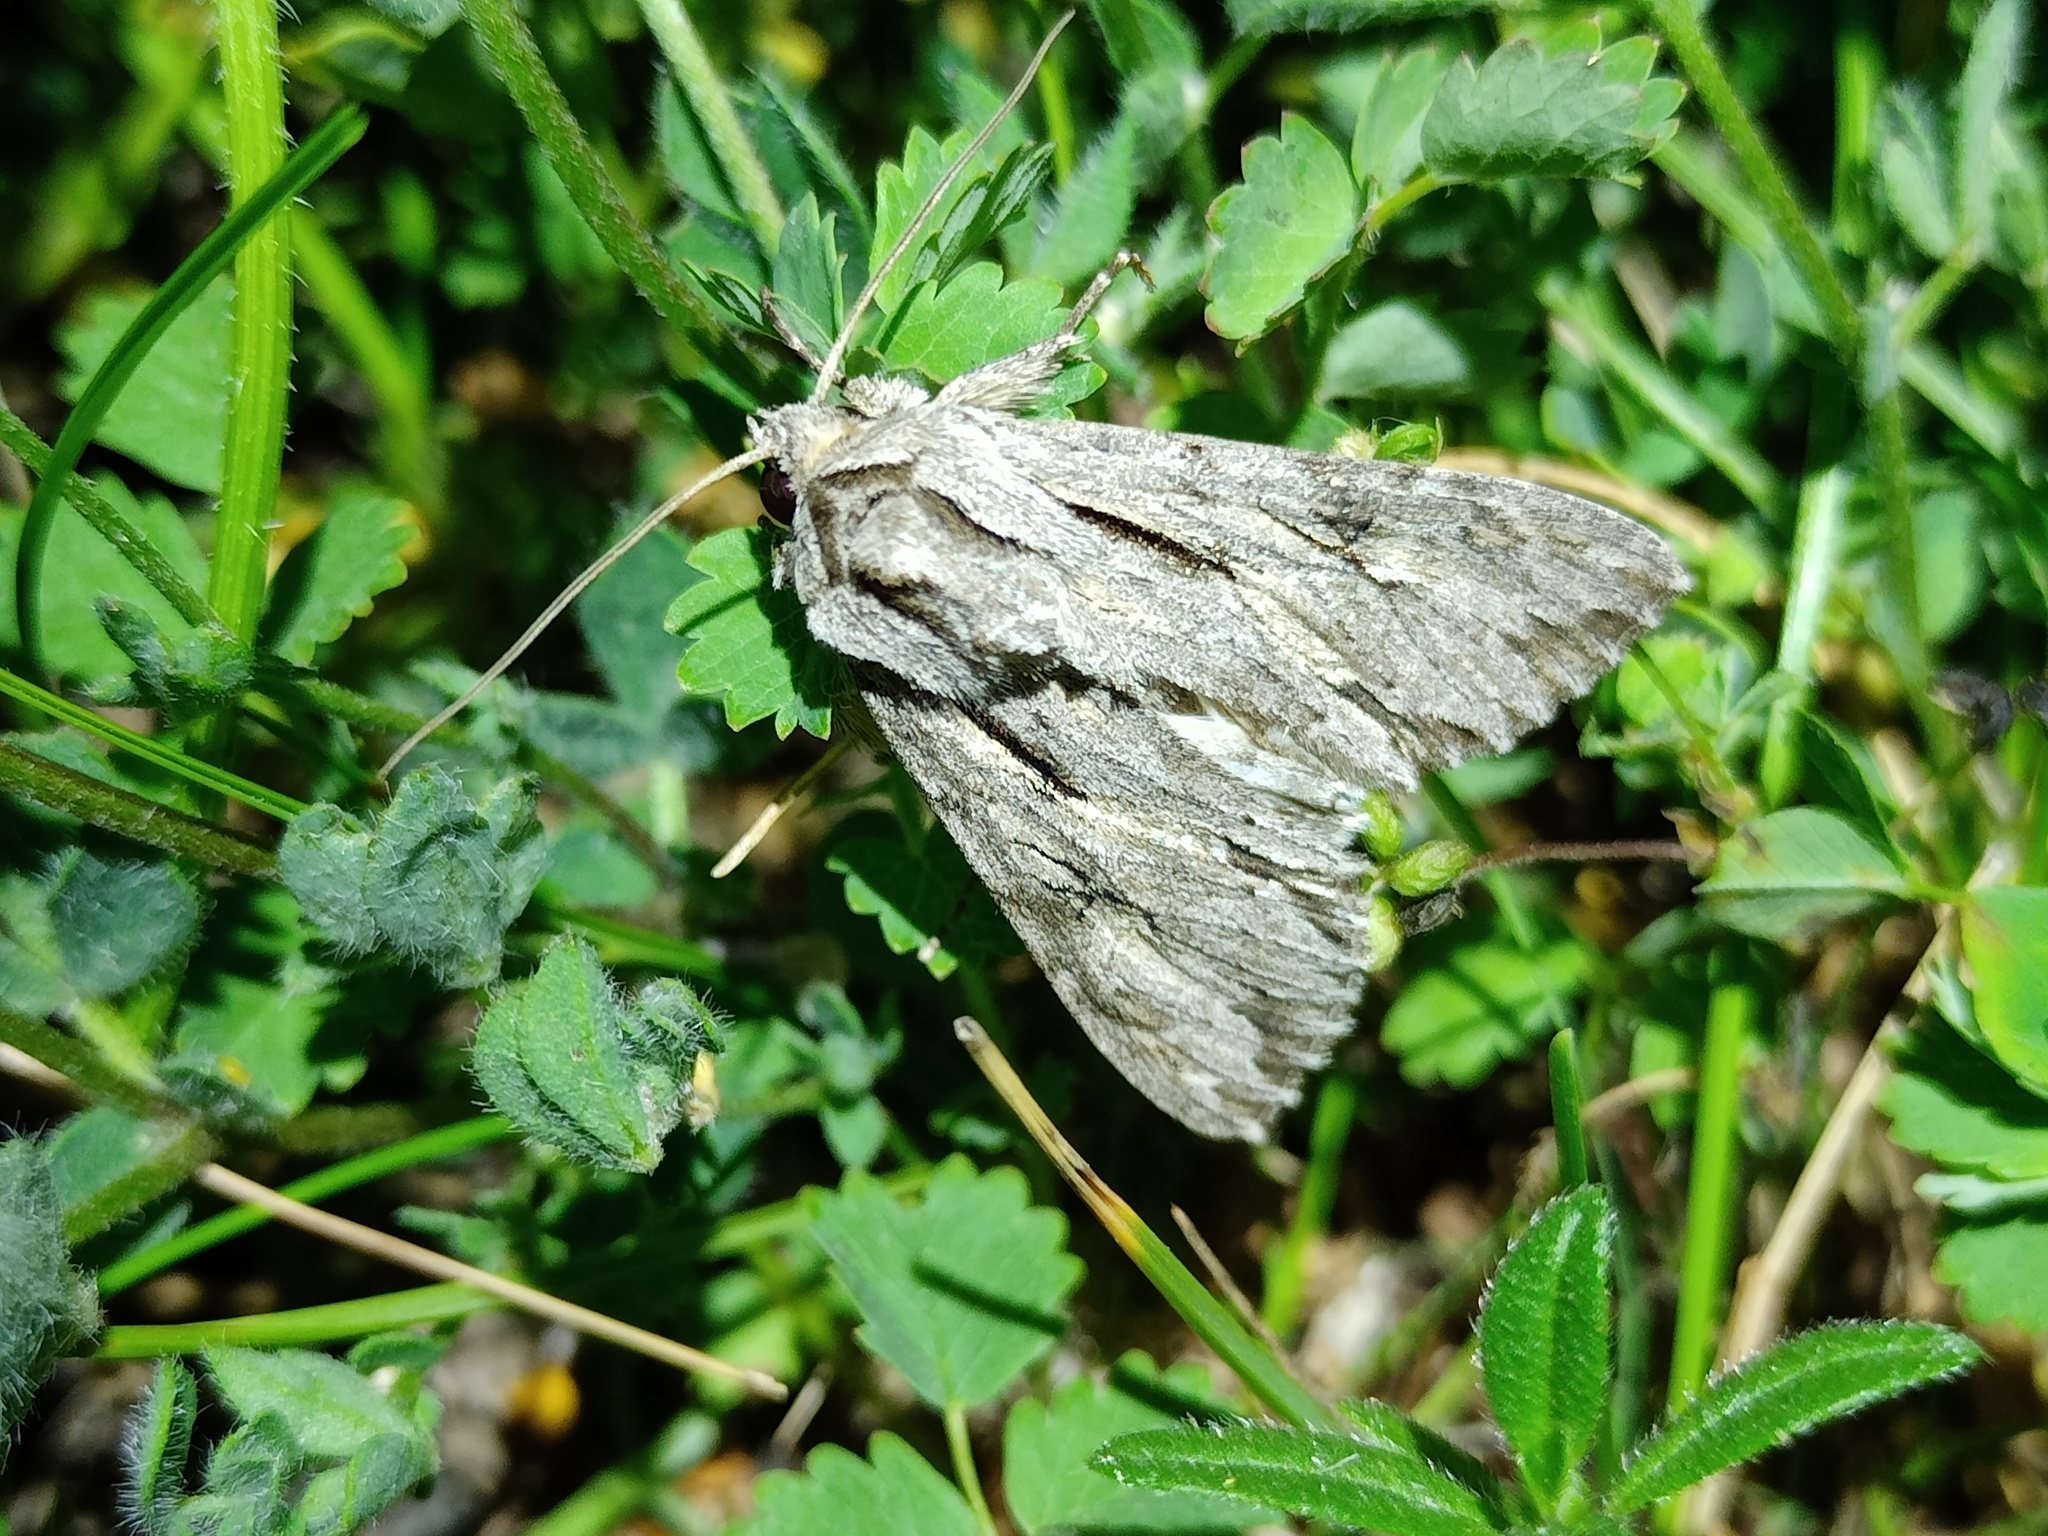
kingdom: Animalia
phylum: Arthropoda
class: Insecta
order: Lepidoptera
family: Noctuidae
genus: Auchmis
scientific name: Auchmis detersa
